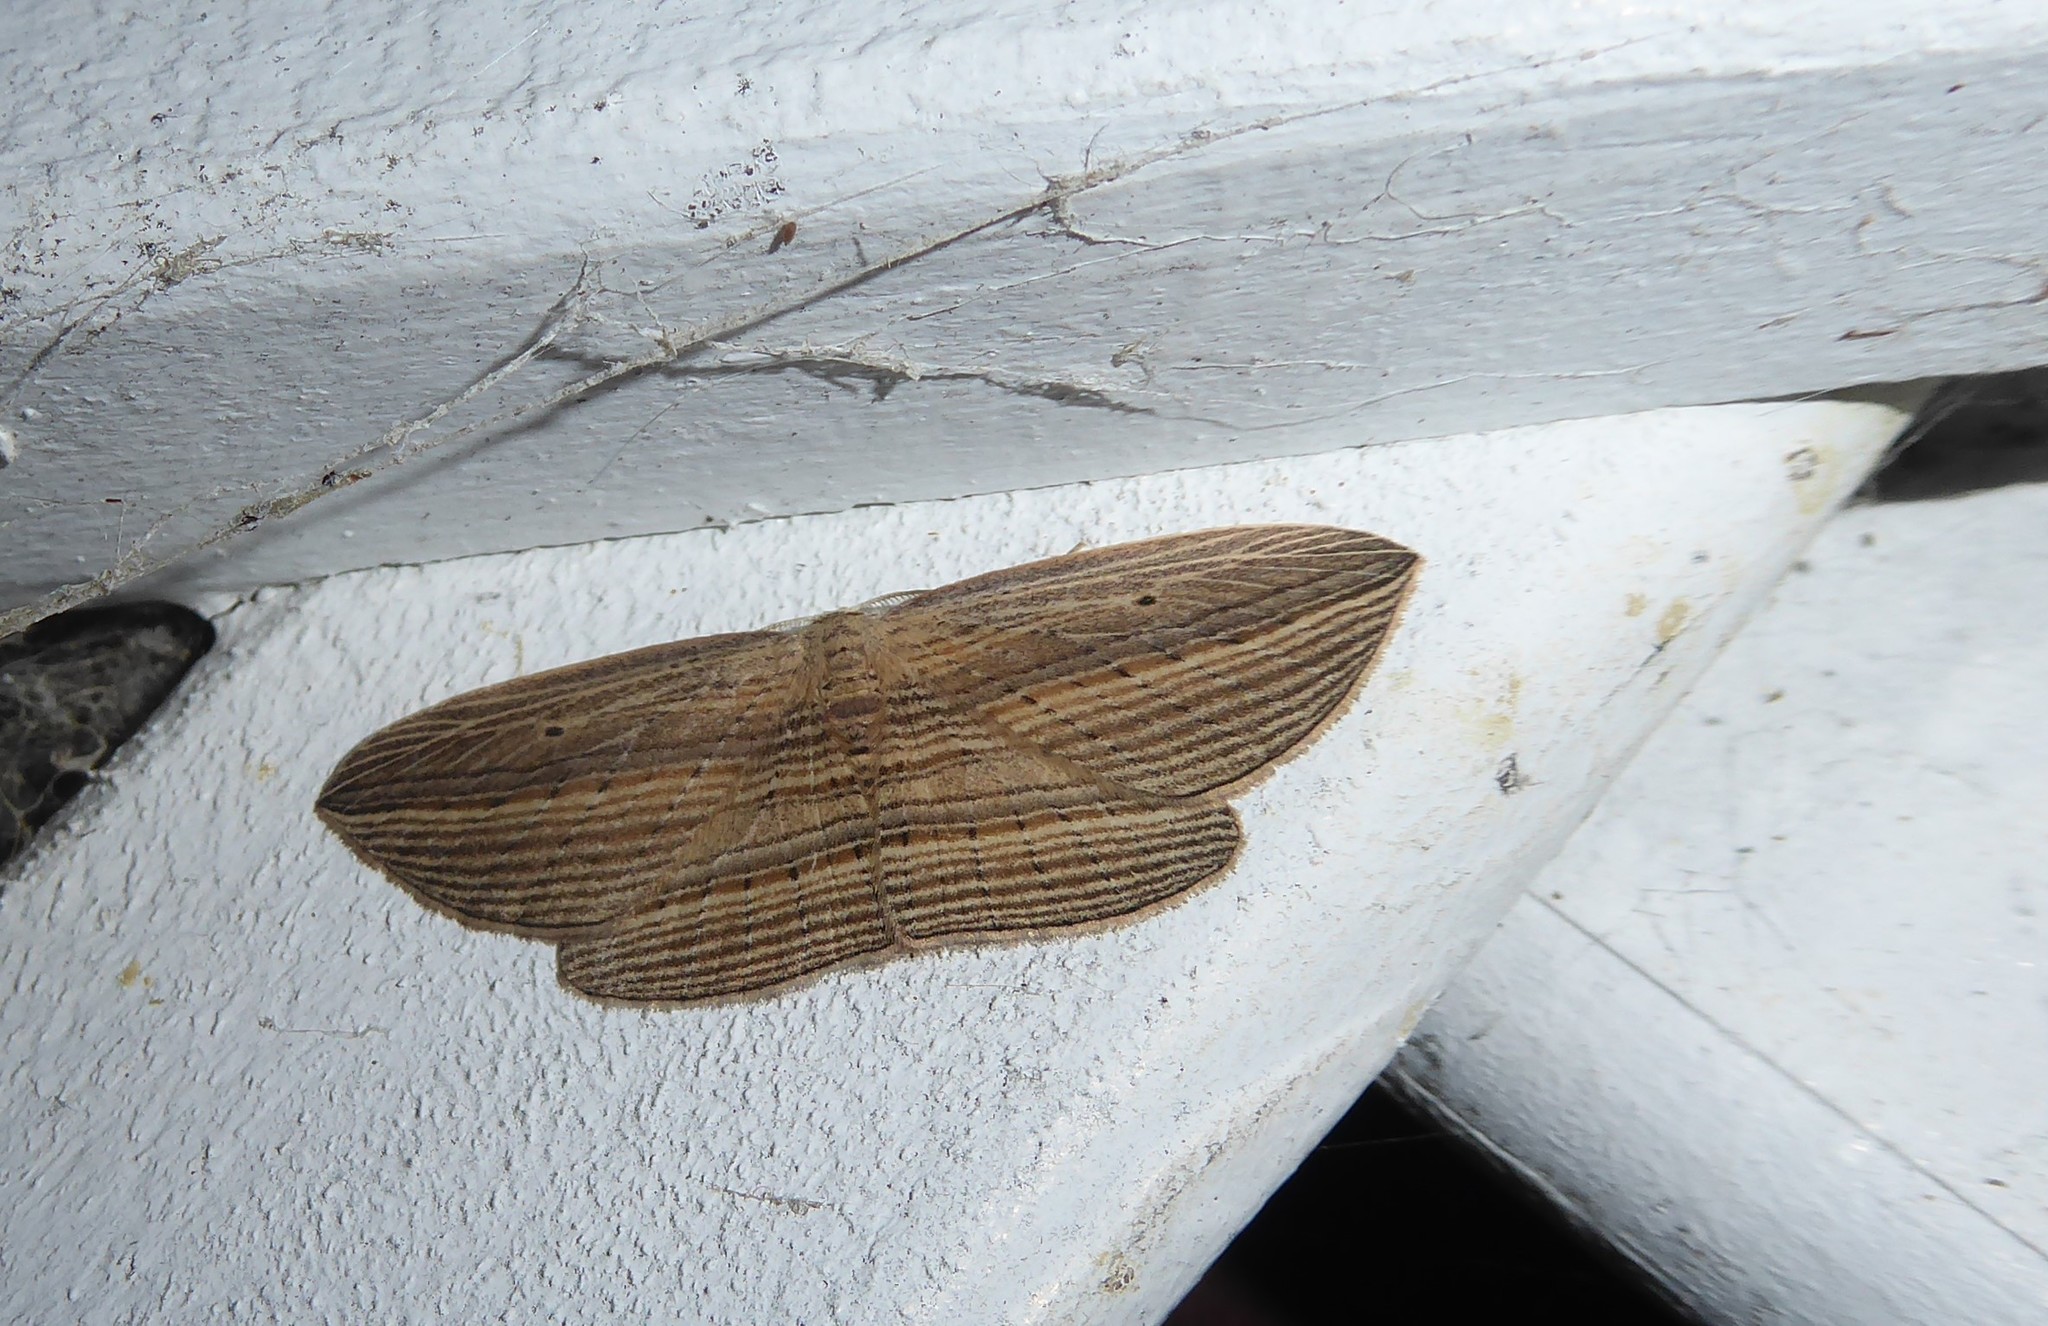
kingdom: Animalia
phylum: Arthropoda
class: Insecta
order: Lepidoptera
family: Geometridae
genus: Epiphryne
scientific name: Epiphryne verriculata
